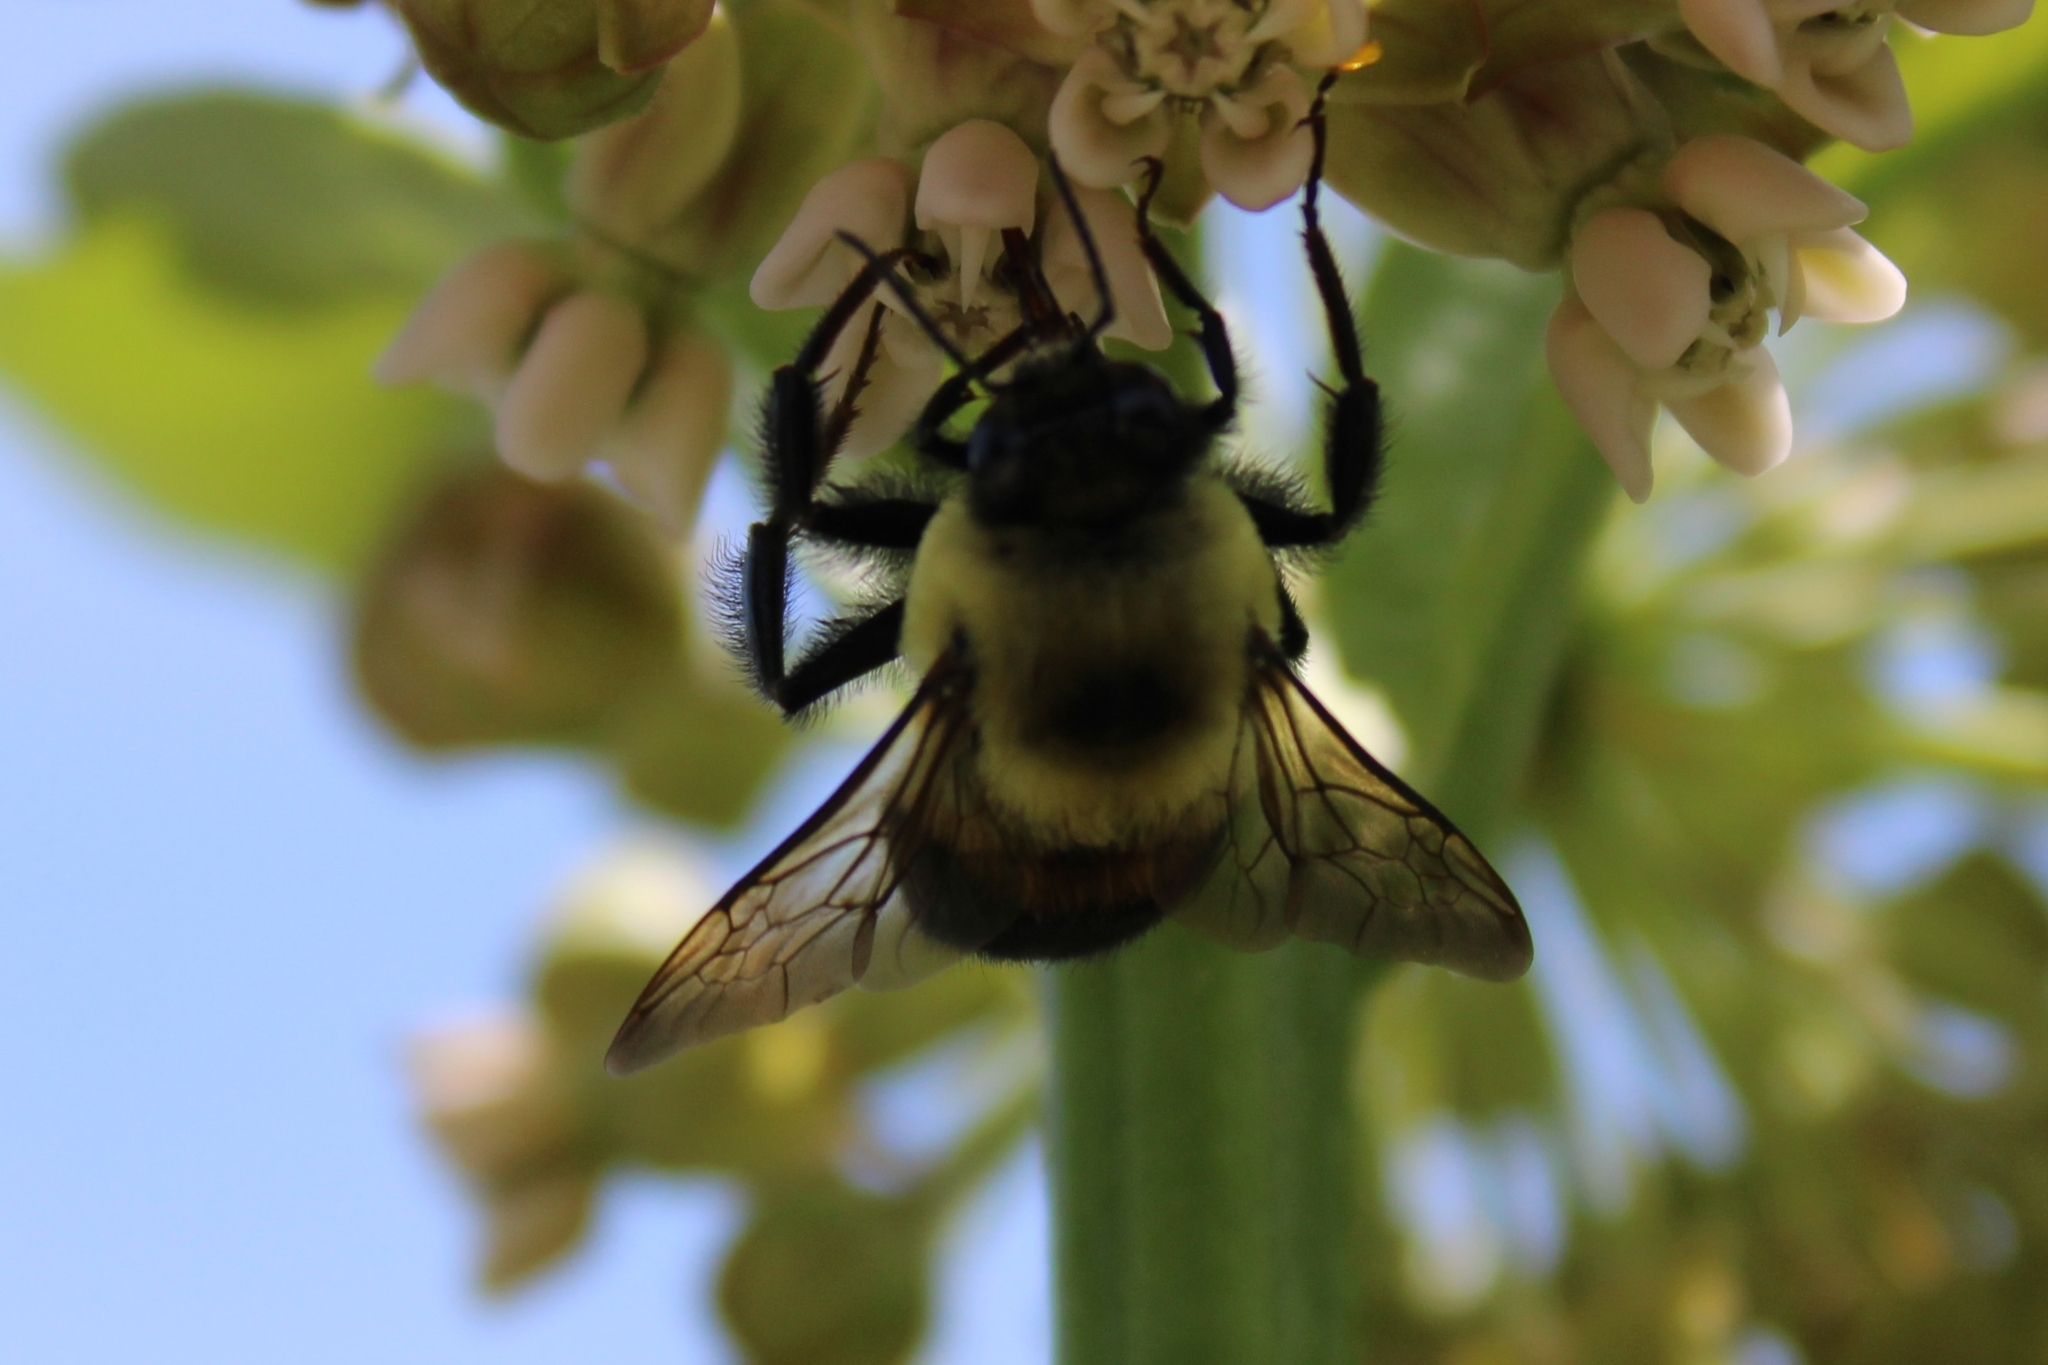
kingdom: Animalia
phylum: Arthropoda
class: Insecta
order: Hymenoptera
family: Apidae
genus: Bombus
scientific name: Bombus griseocollis
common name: Brown-belted bumble bee
